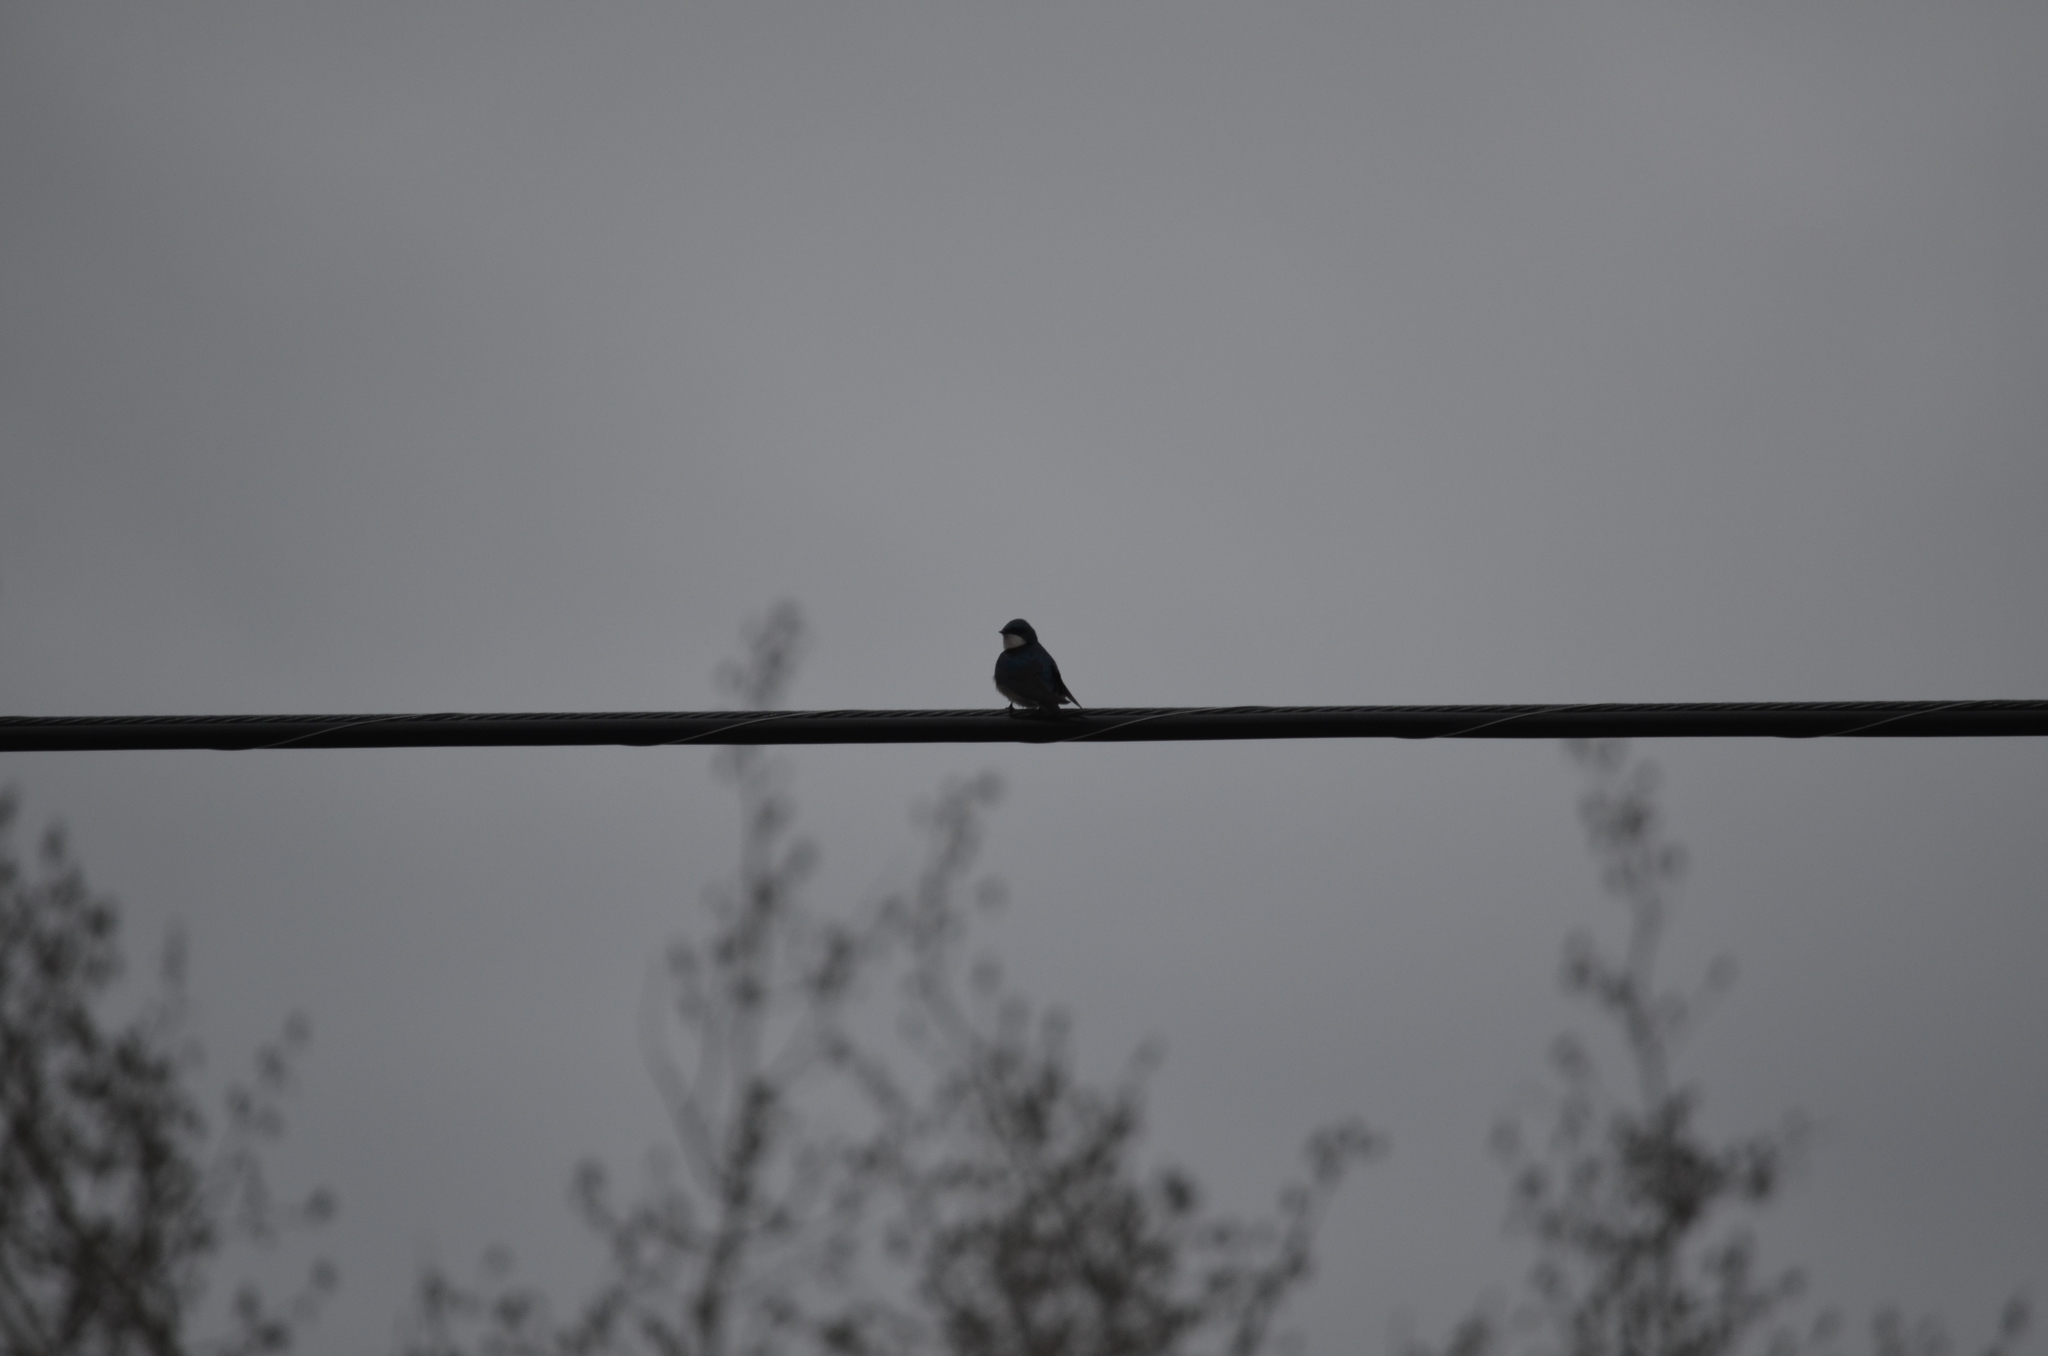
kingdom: Animalia
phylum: Chordata
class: Aves
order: Passeriformes
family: Hirundinidae
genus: Tachycineta
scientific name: Tachycineta bicolor
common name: Tree swallow
